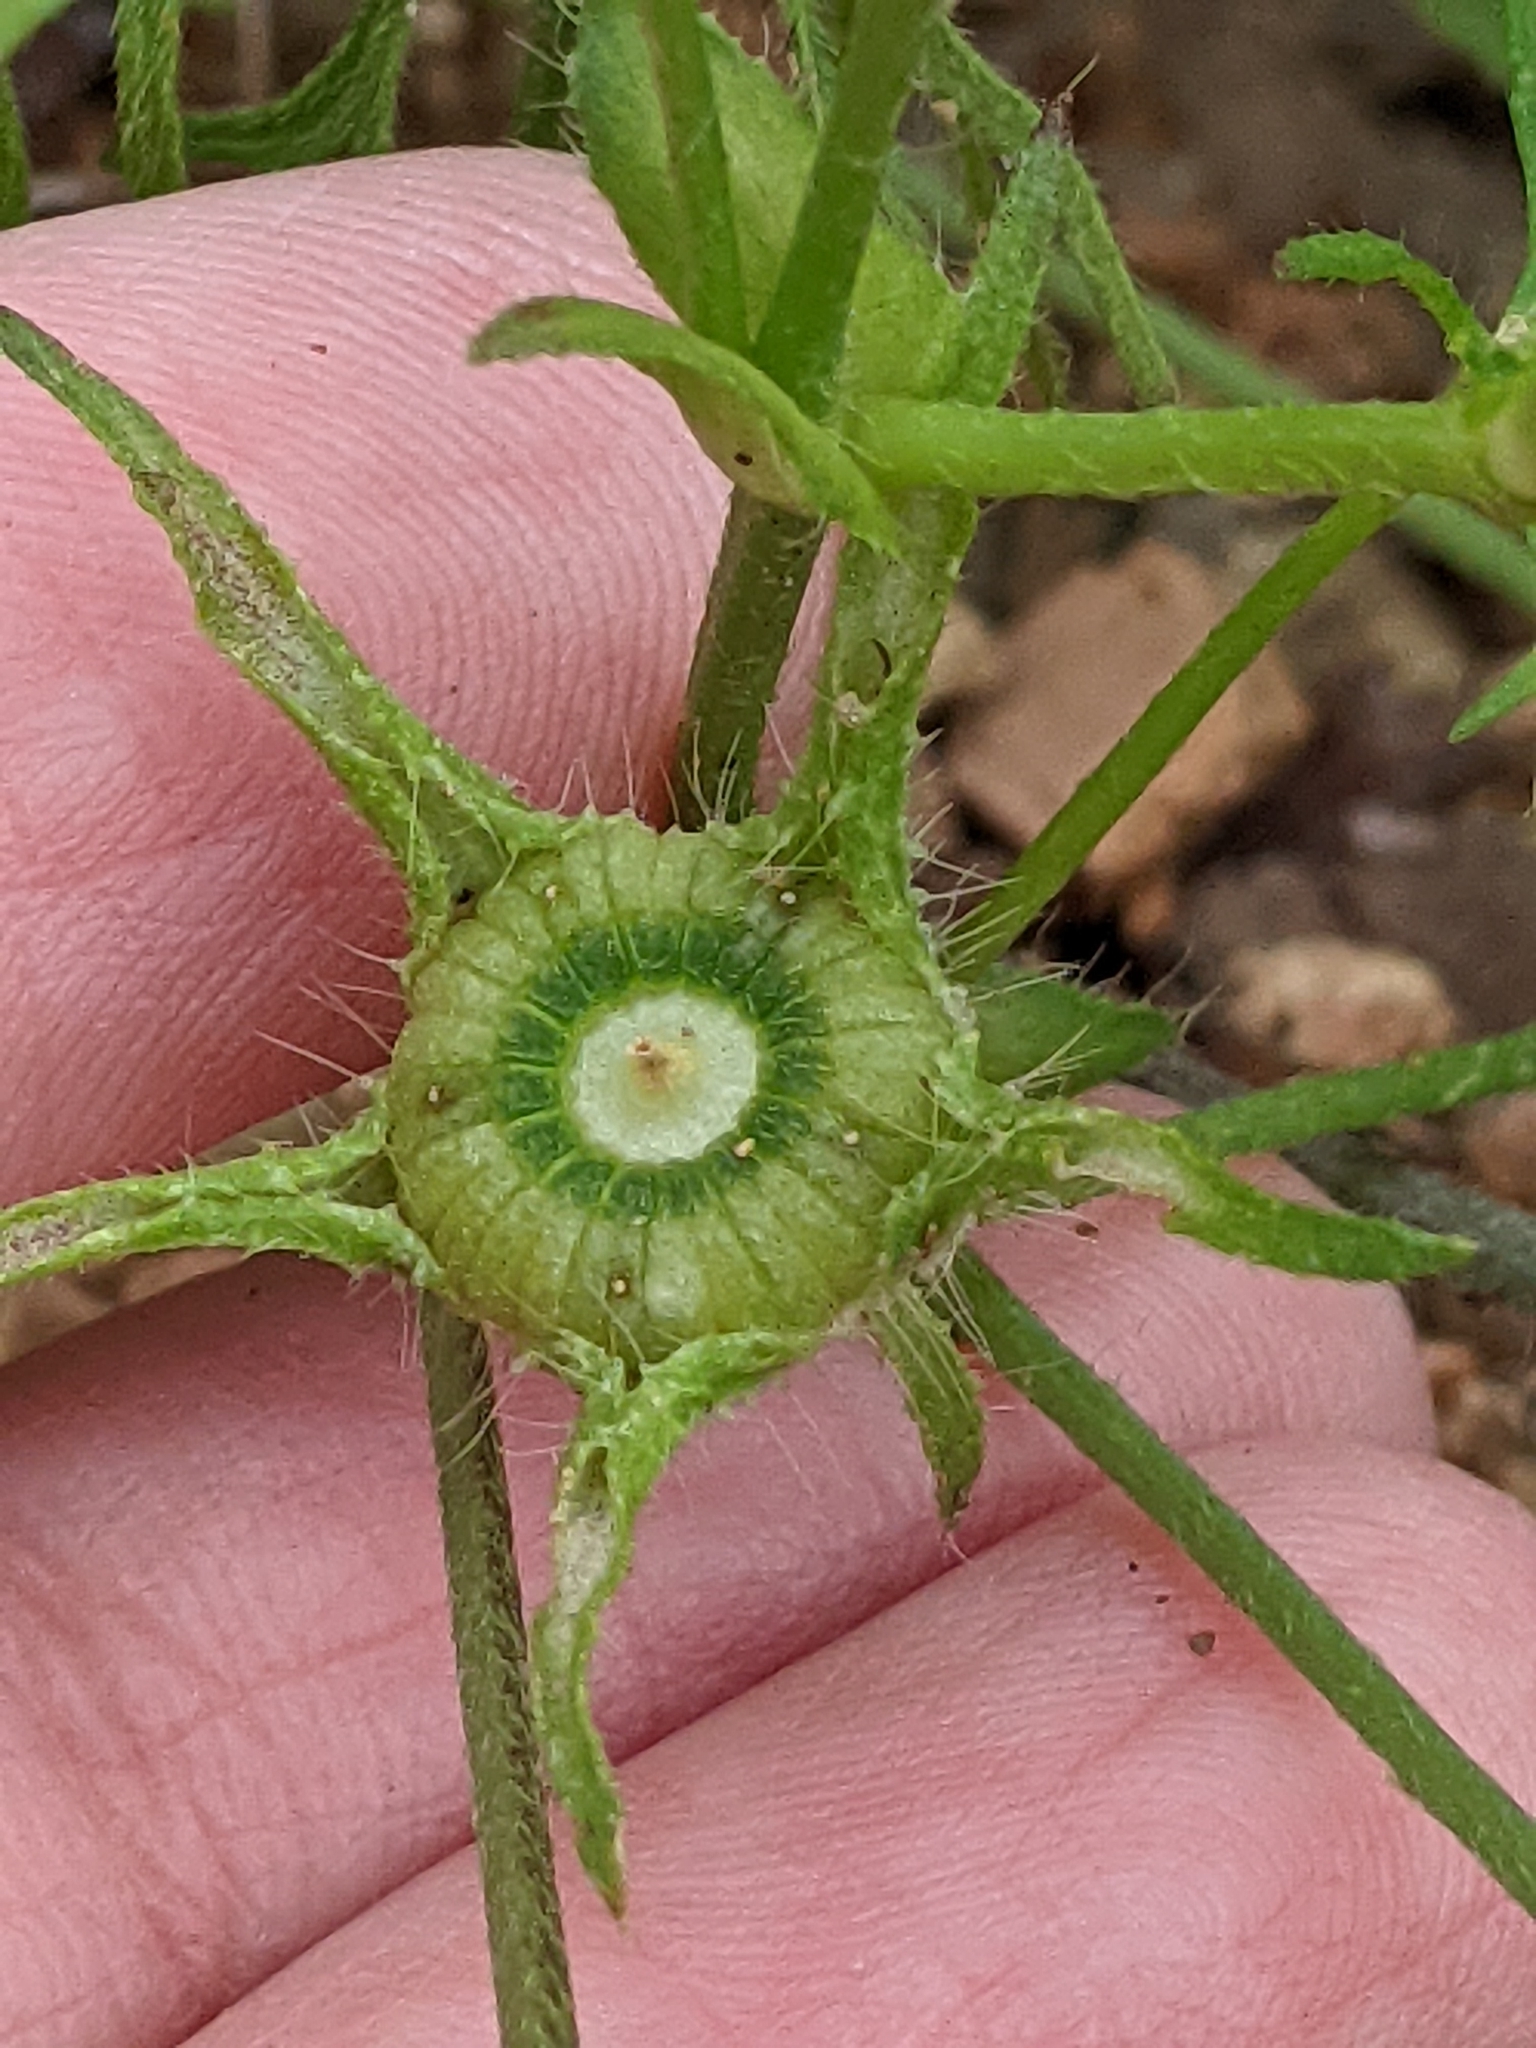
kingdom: Plantae
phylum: Tracheophyta
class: Magnoliopsida
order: Malvales
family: Malvaceae
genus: Callirhoe
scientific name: Callirhoe involucrata
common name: Purple poppy-mallow
